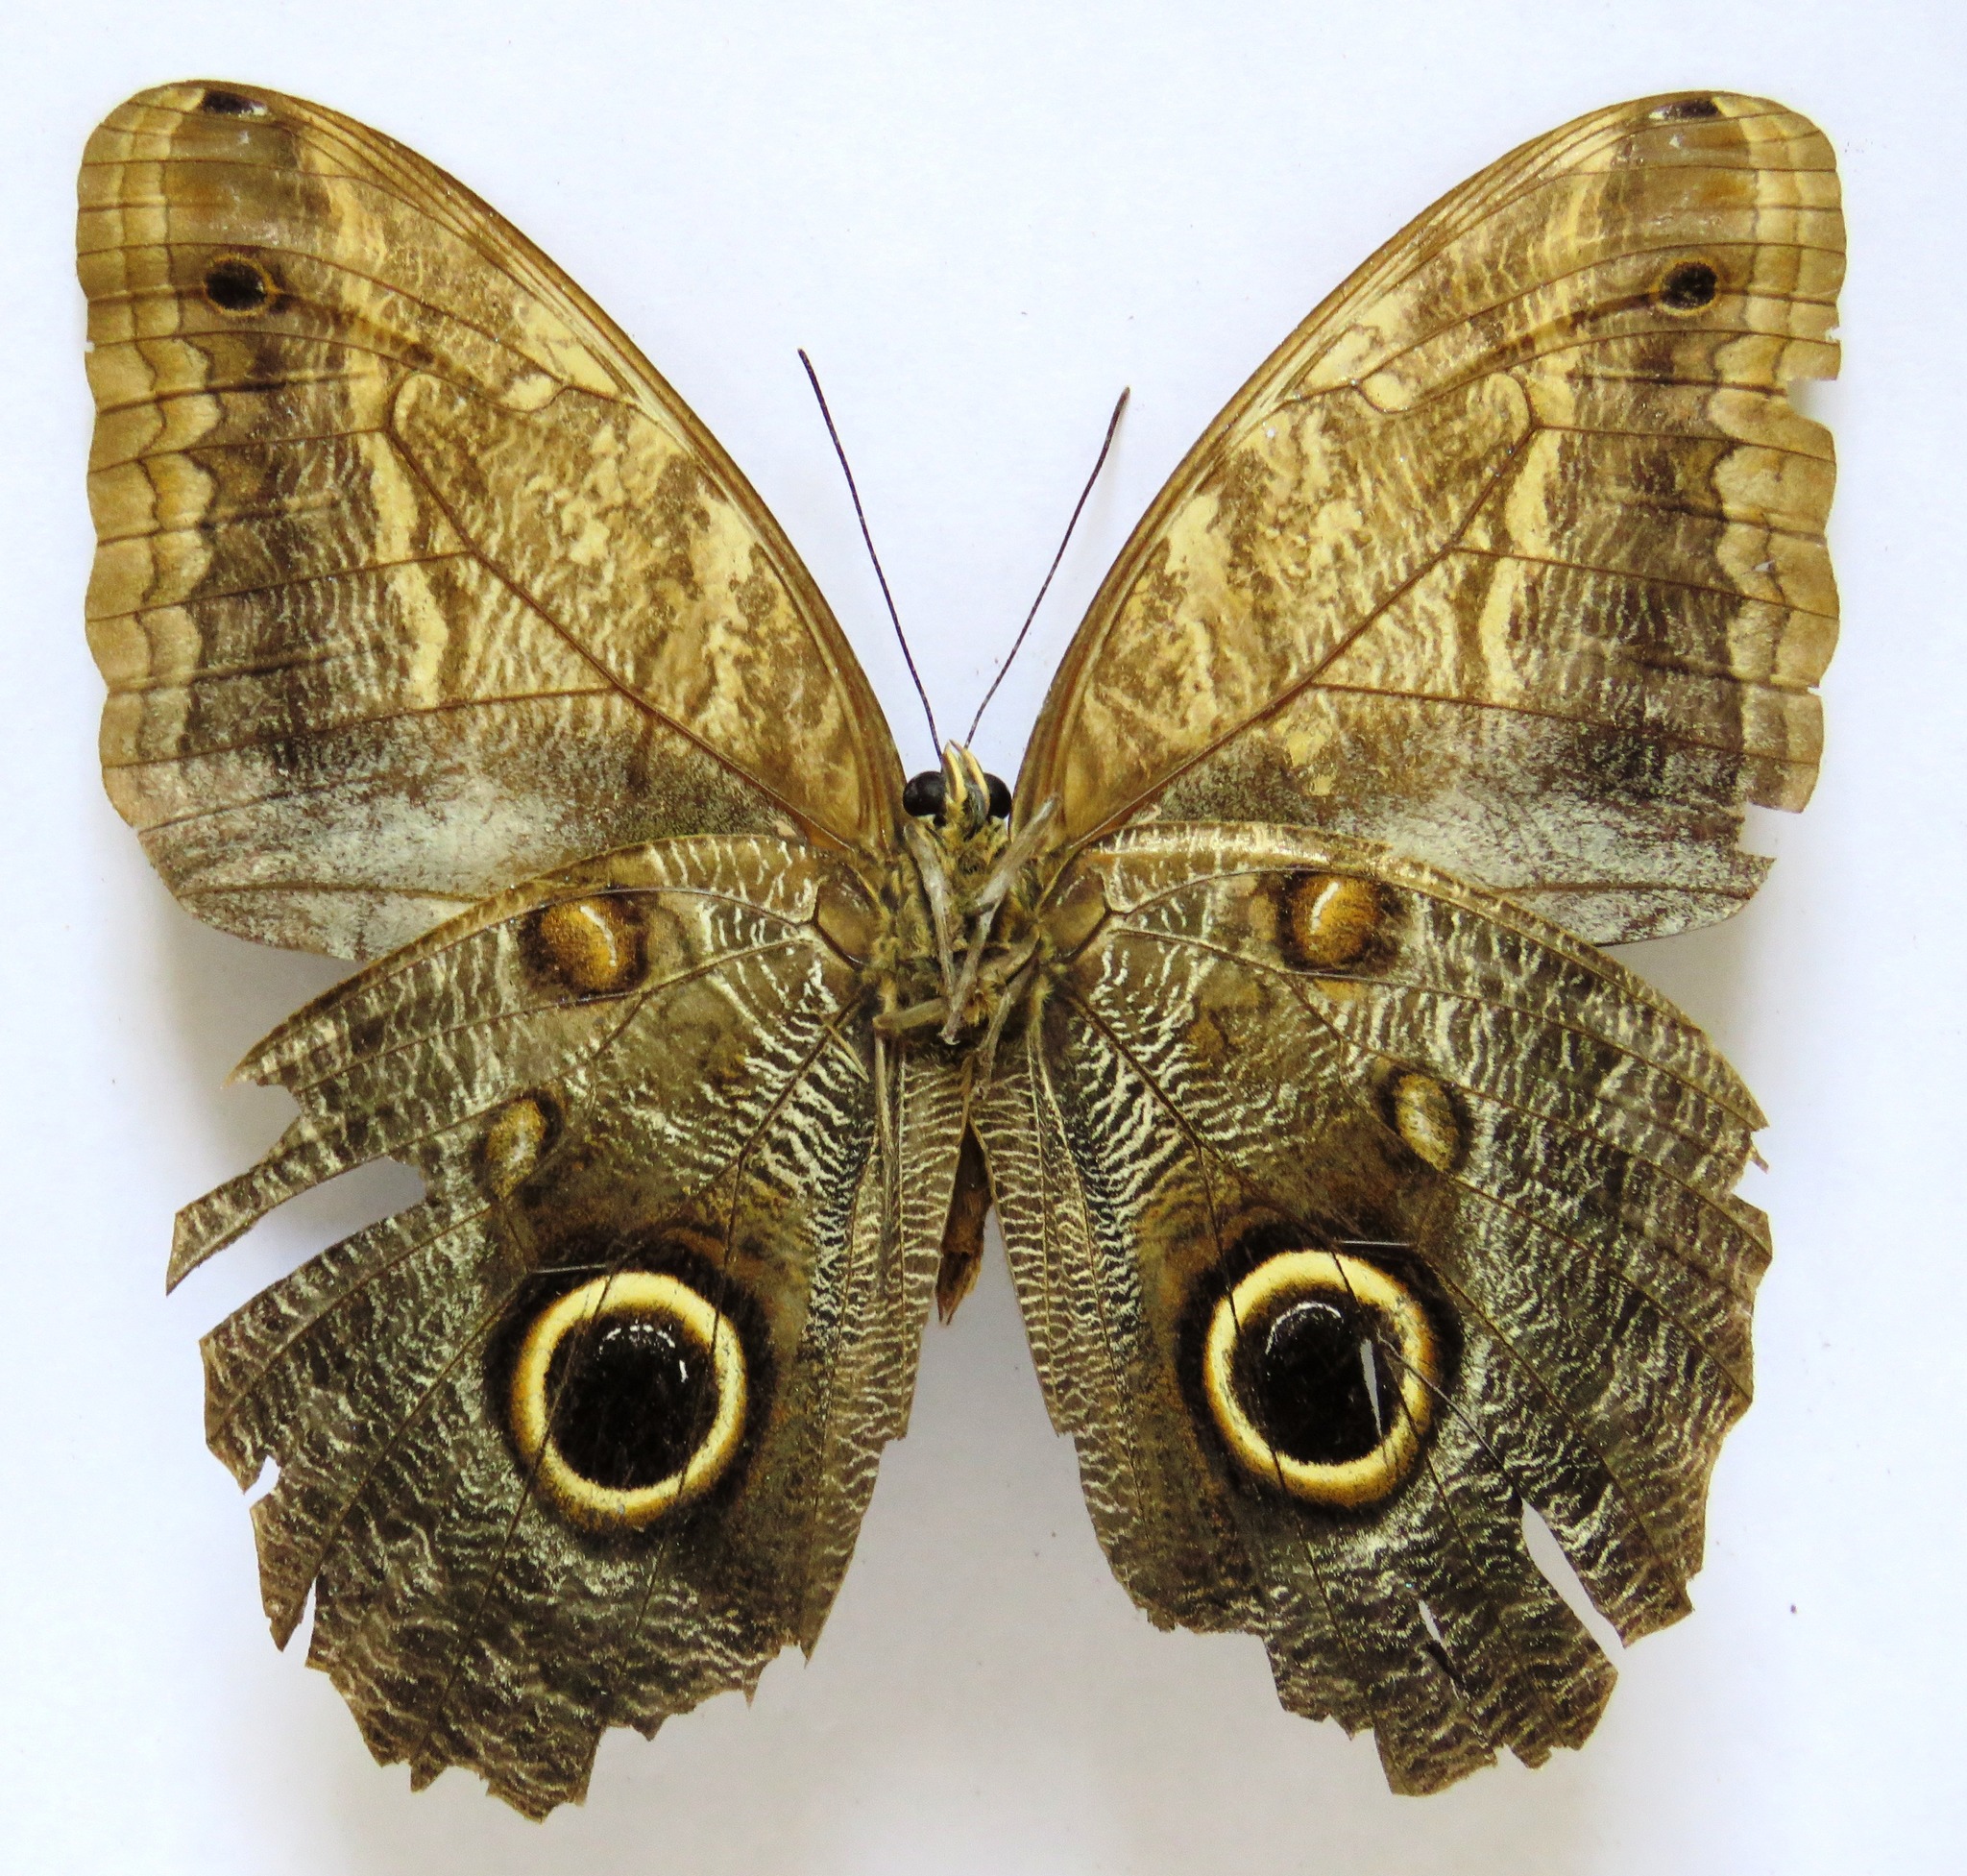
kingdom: Animalia
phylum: Arthropoda
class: Insecta
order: Lepidoptera
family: Nymphalidae
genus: Caligo
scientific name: Caligo telamonius
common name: Pale owl-butterfly
